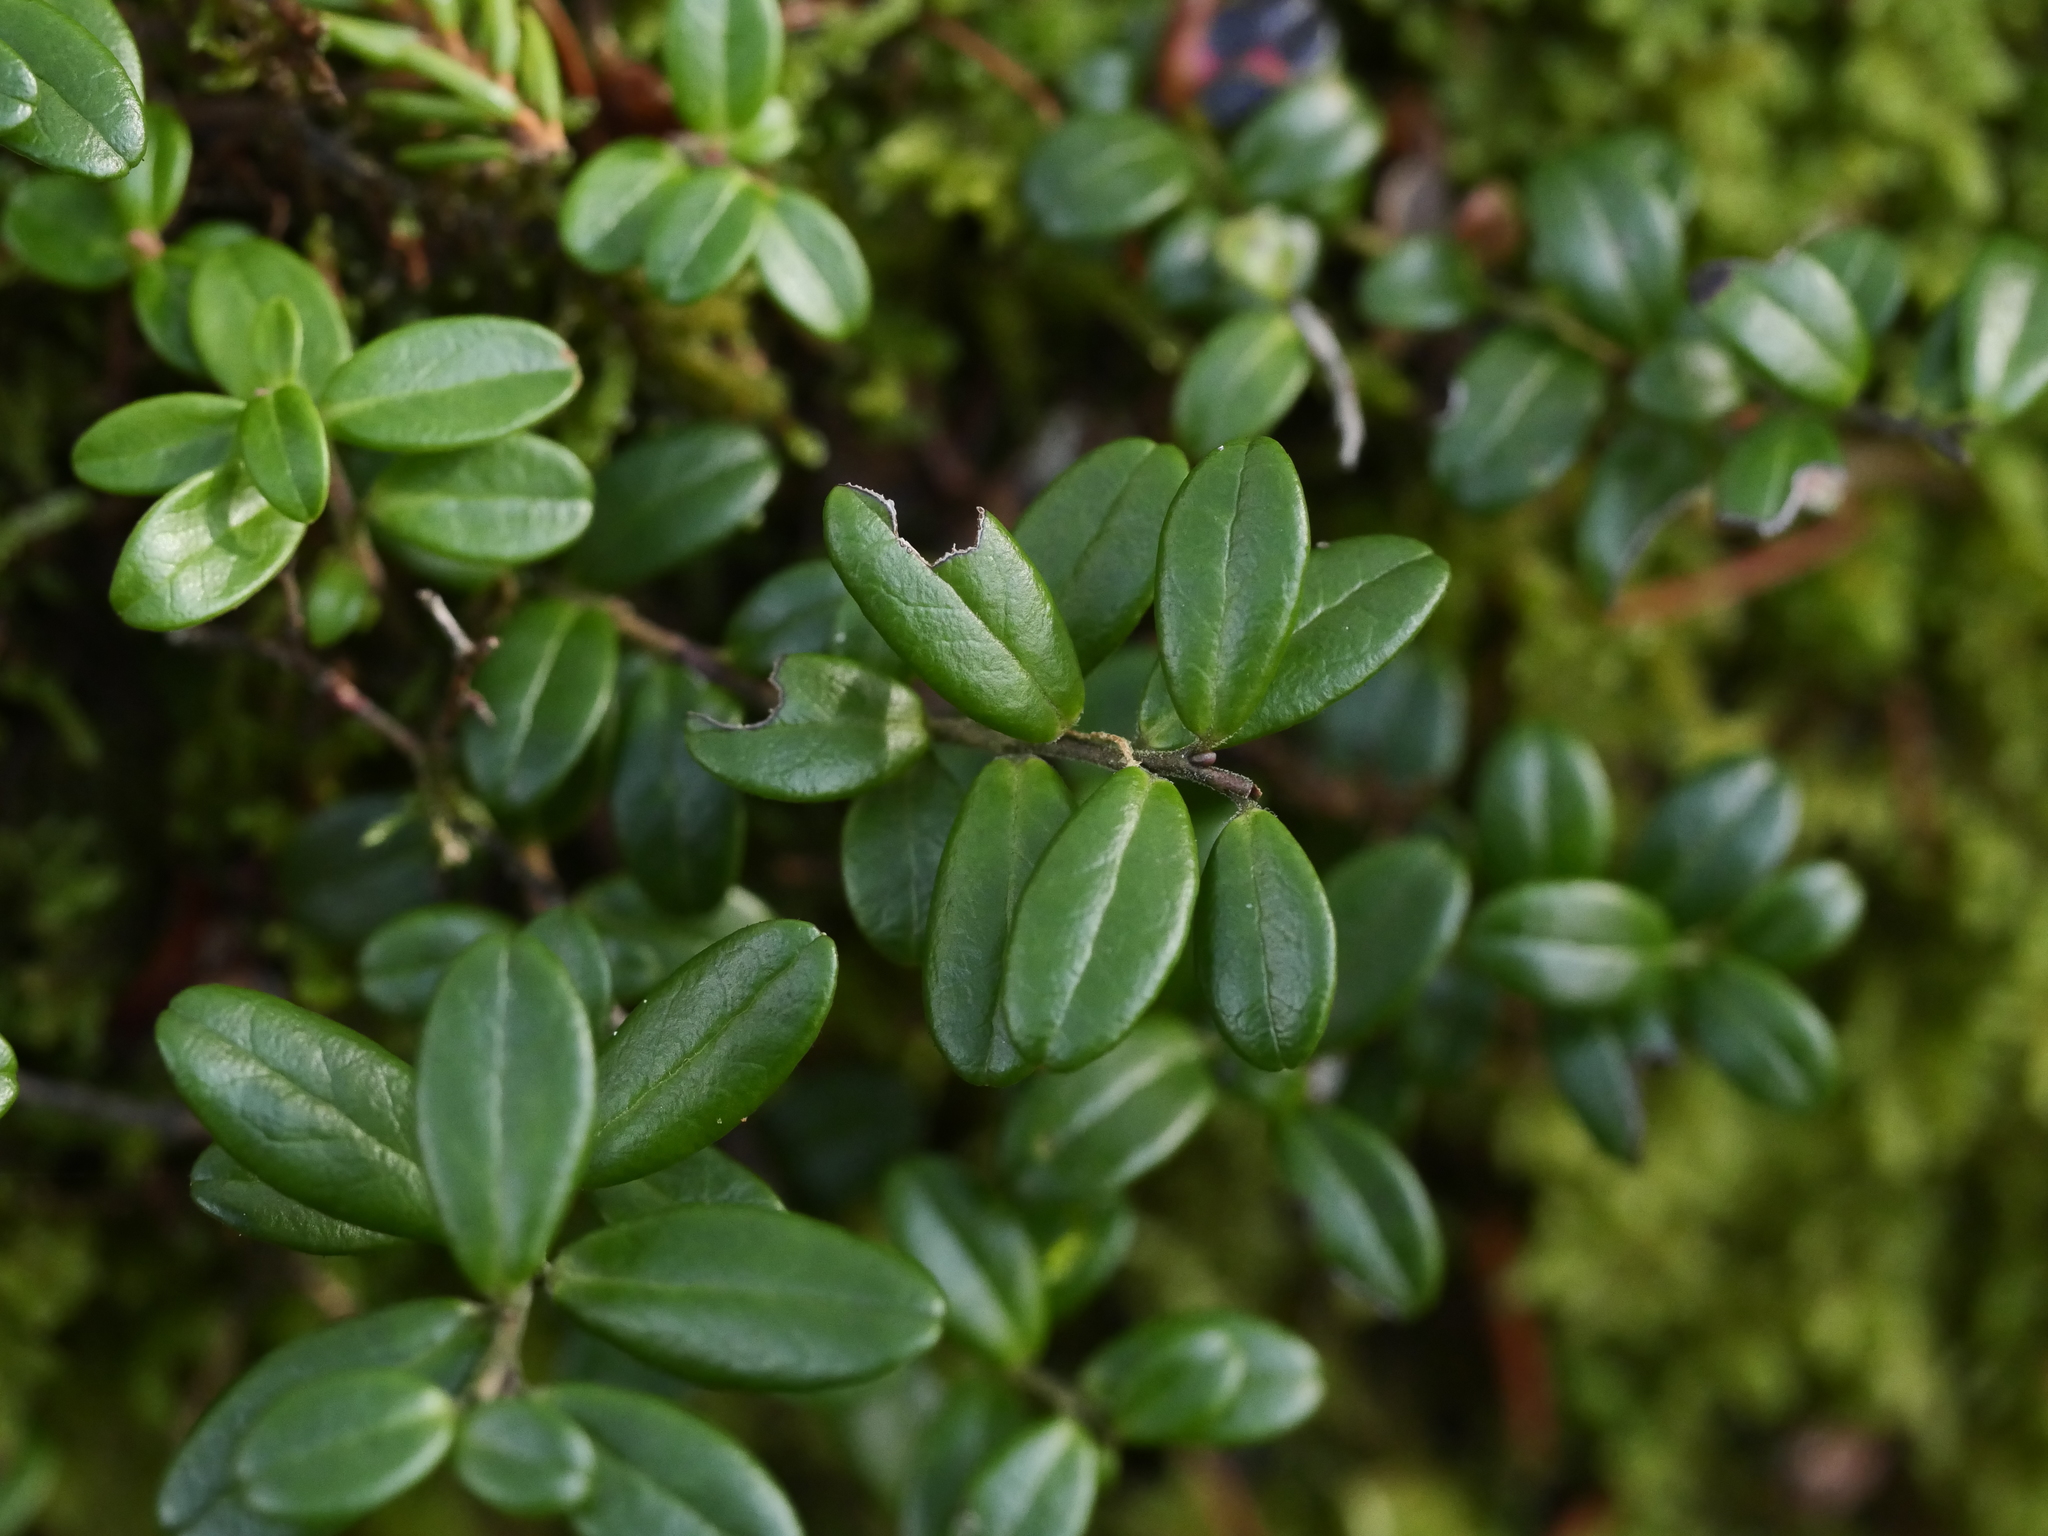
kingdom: Plantae
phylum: Tracheophyta
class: Magnoliopsida
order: Ericales
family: Ericaceae
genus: Vaccinium
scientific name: Vaccinium vitis-idaea
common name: Cowberry
